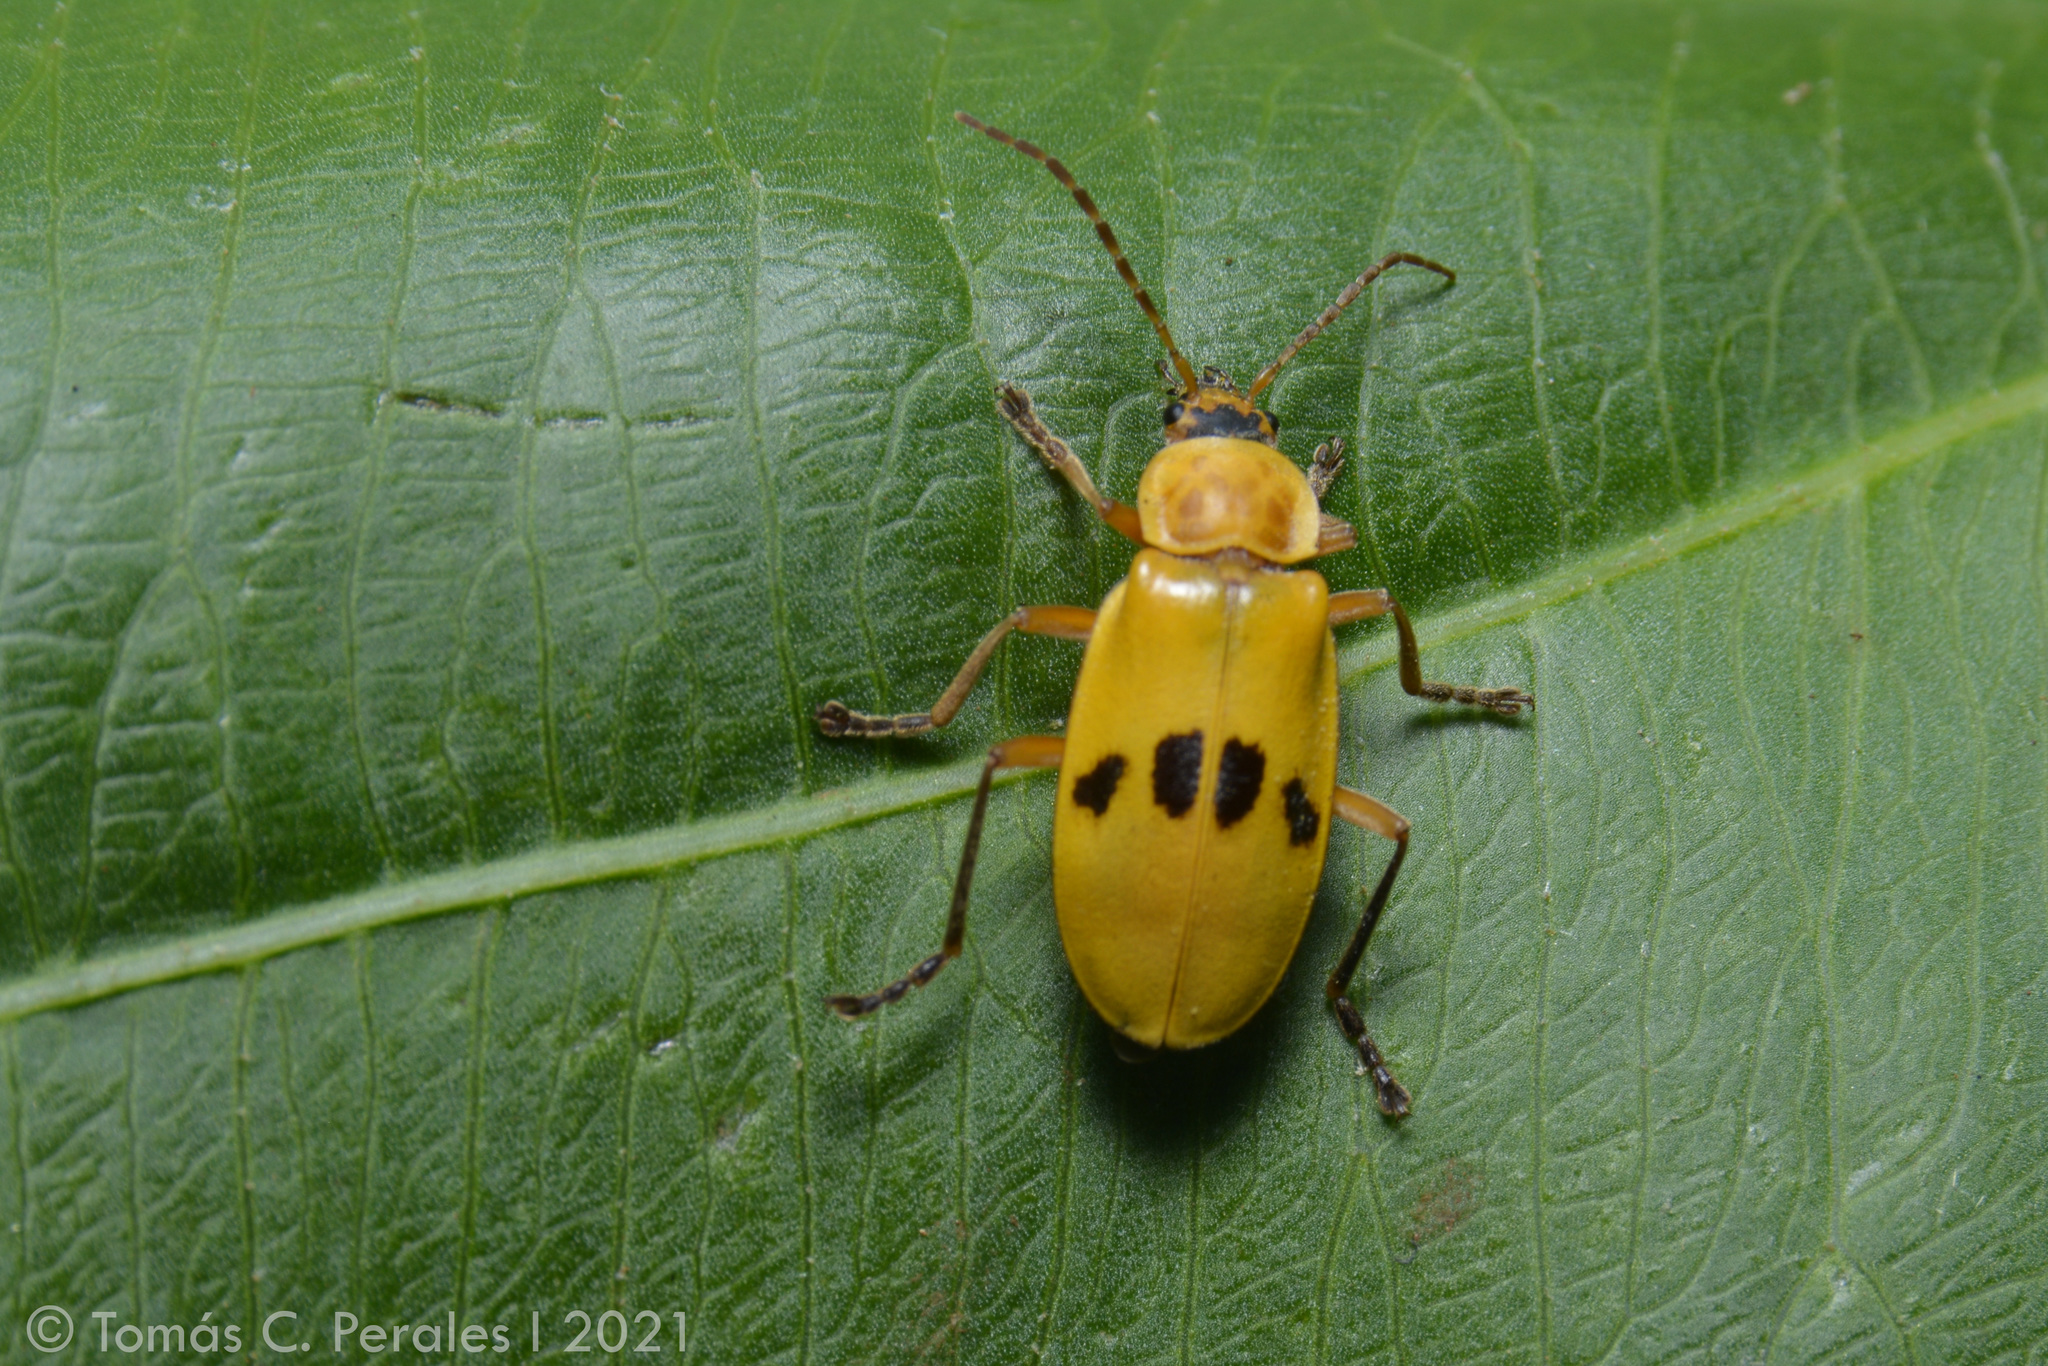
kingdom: Animalia
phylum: Arthropoda
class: Insecta
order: Coleoptera
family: Cantharidae
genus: Chauliognathus
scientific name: Chauliognathus
